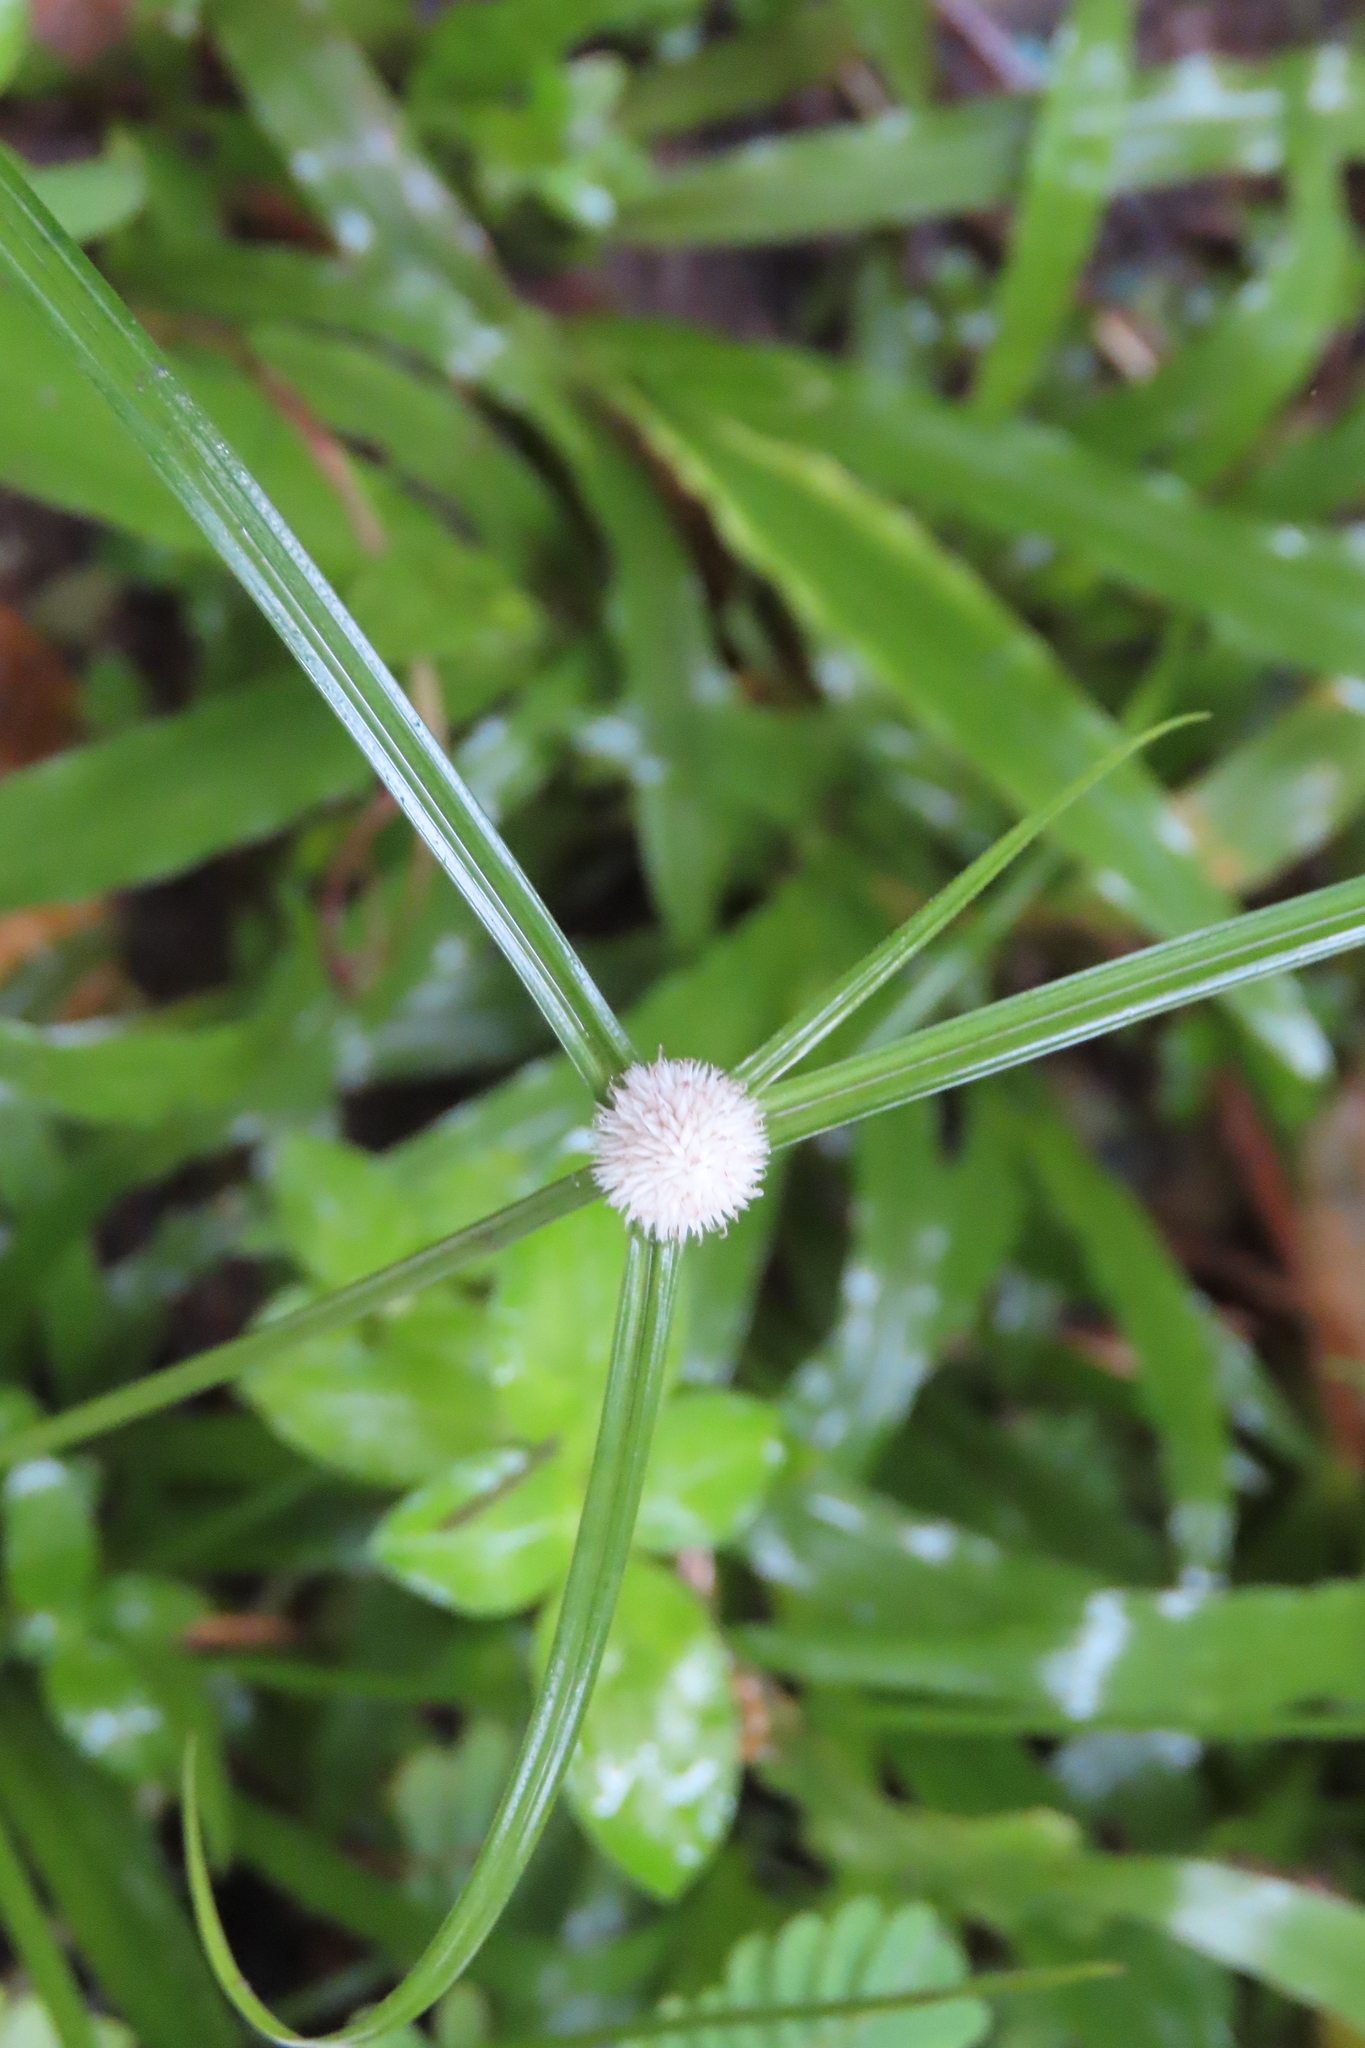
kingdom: Plantae
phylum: Tracheophyta
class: Liliopsida
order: Poales
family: Cyperaceae
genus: Cyperus
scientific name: Cyperus mindorensis
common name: Flatsedge
